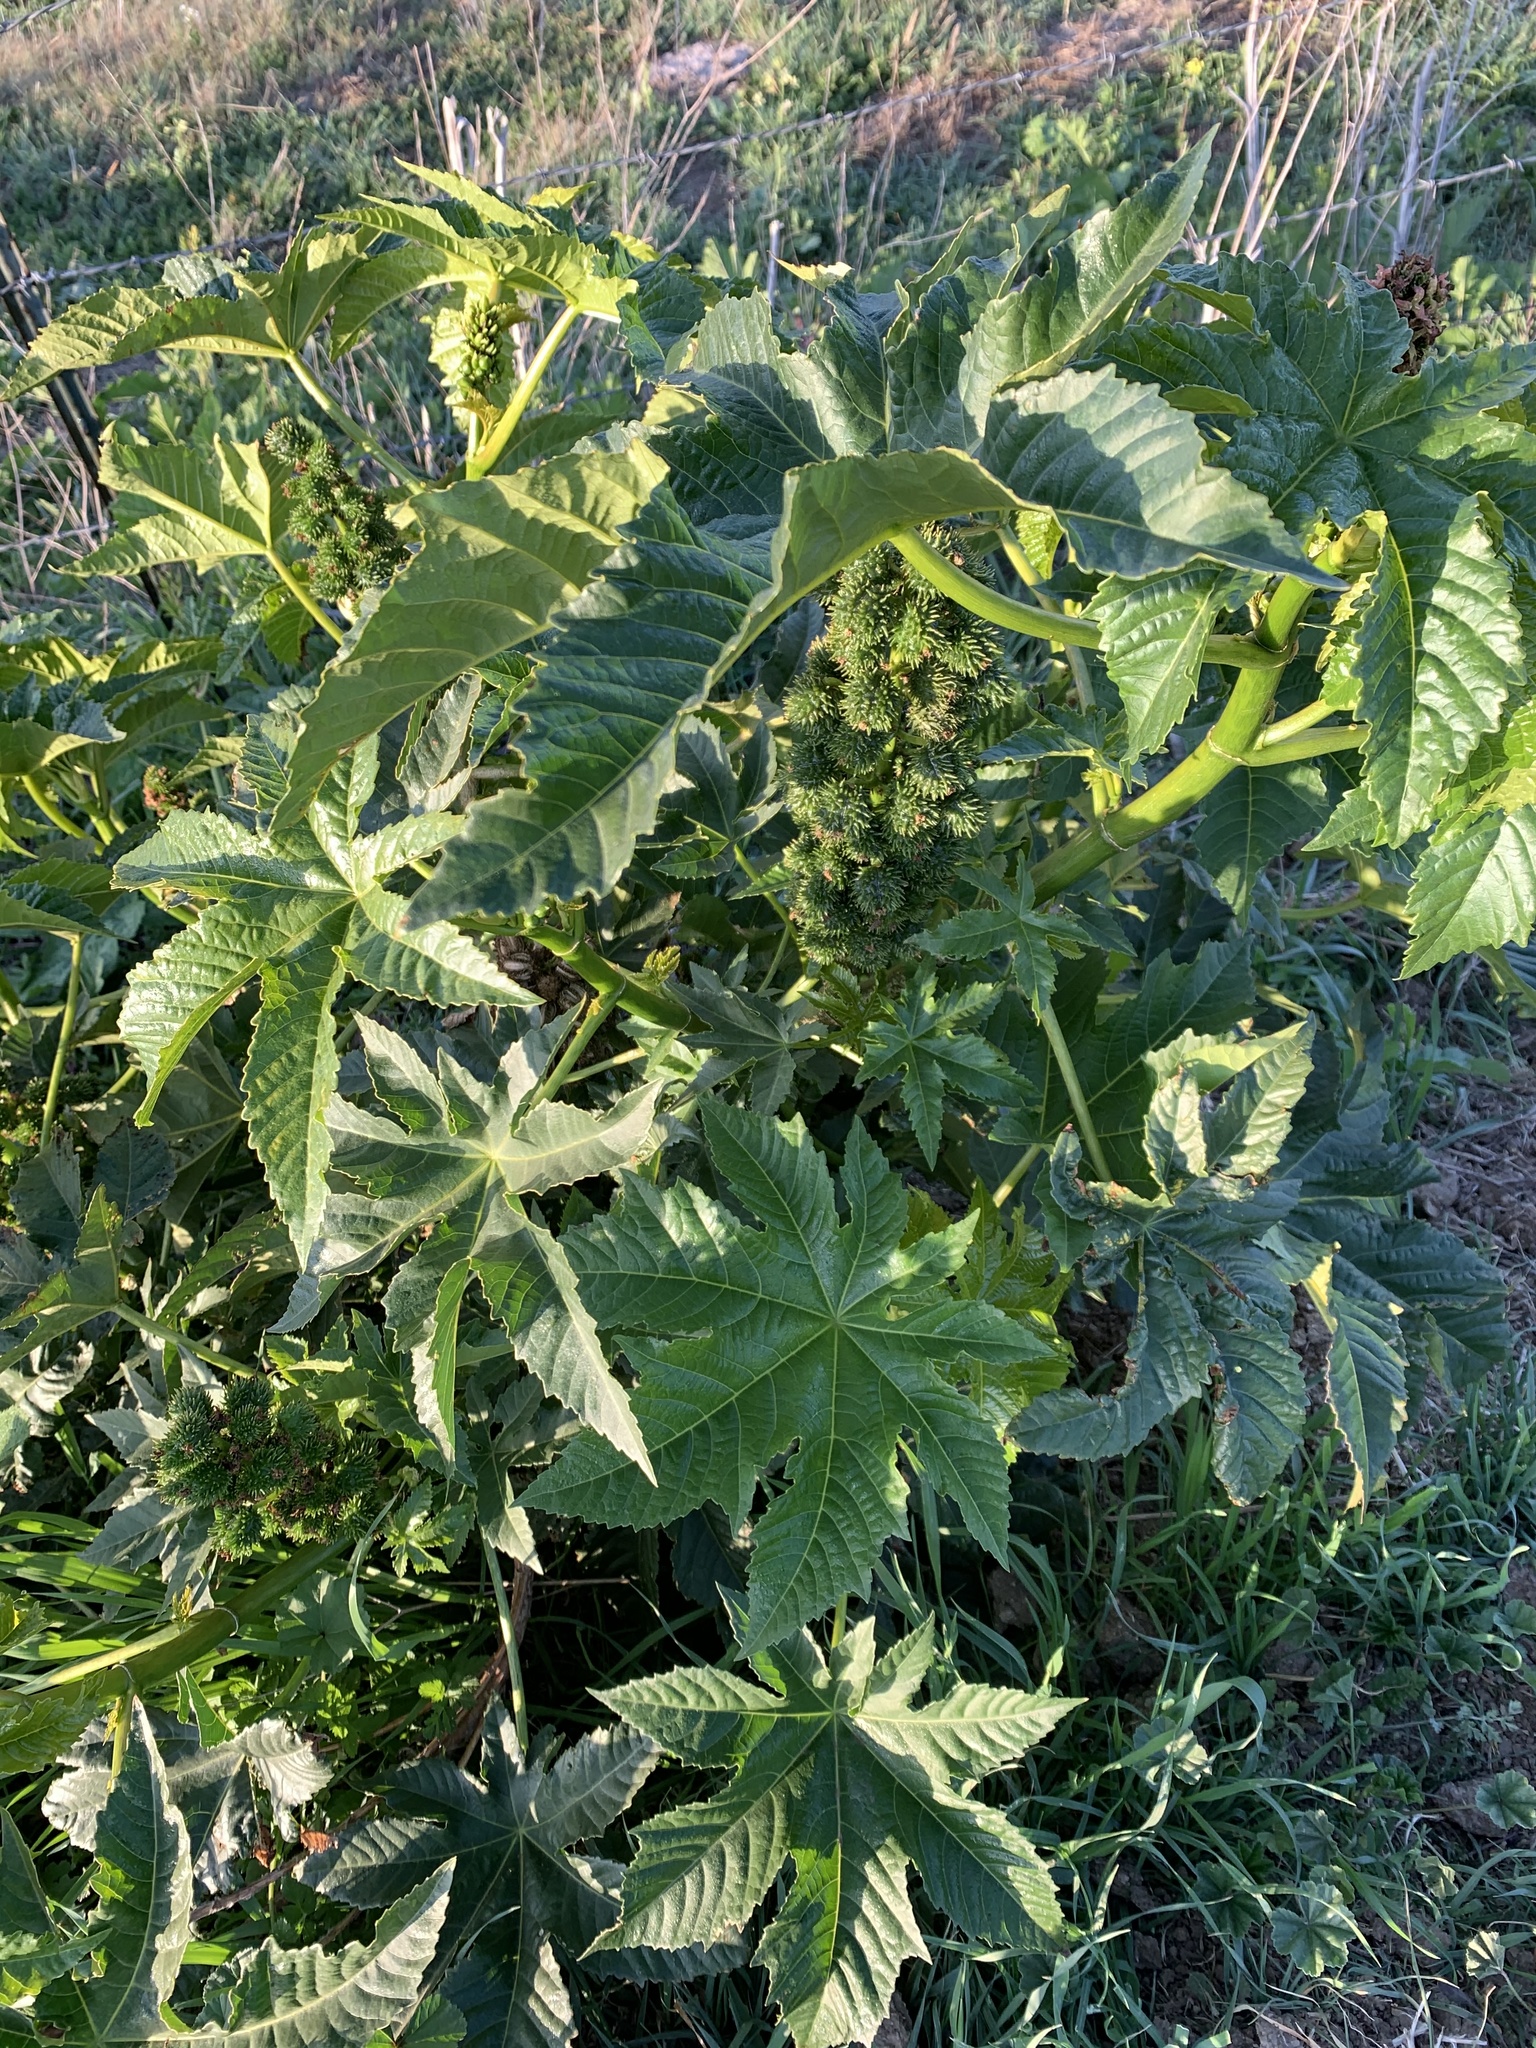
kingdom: Plantae
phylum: Tracheophyta
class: Magnoliopsida
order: Malpighiales
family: Euphorbiaceae
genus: Ricinus
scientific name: Ricinus communis
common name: Castor-oil-plant
